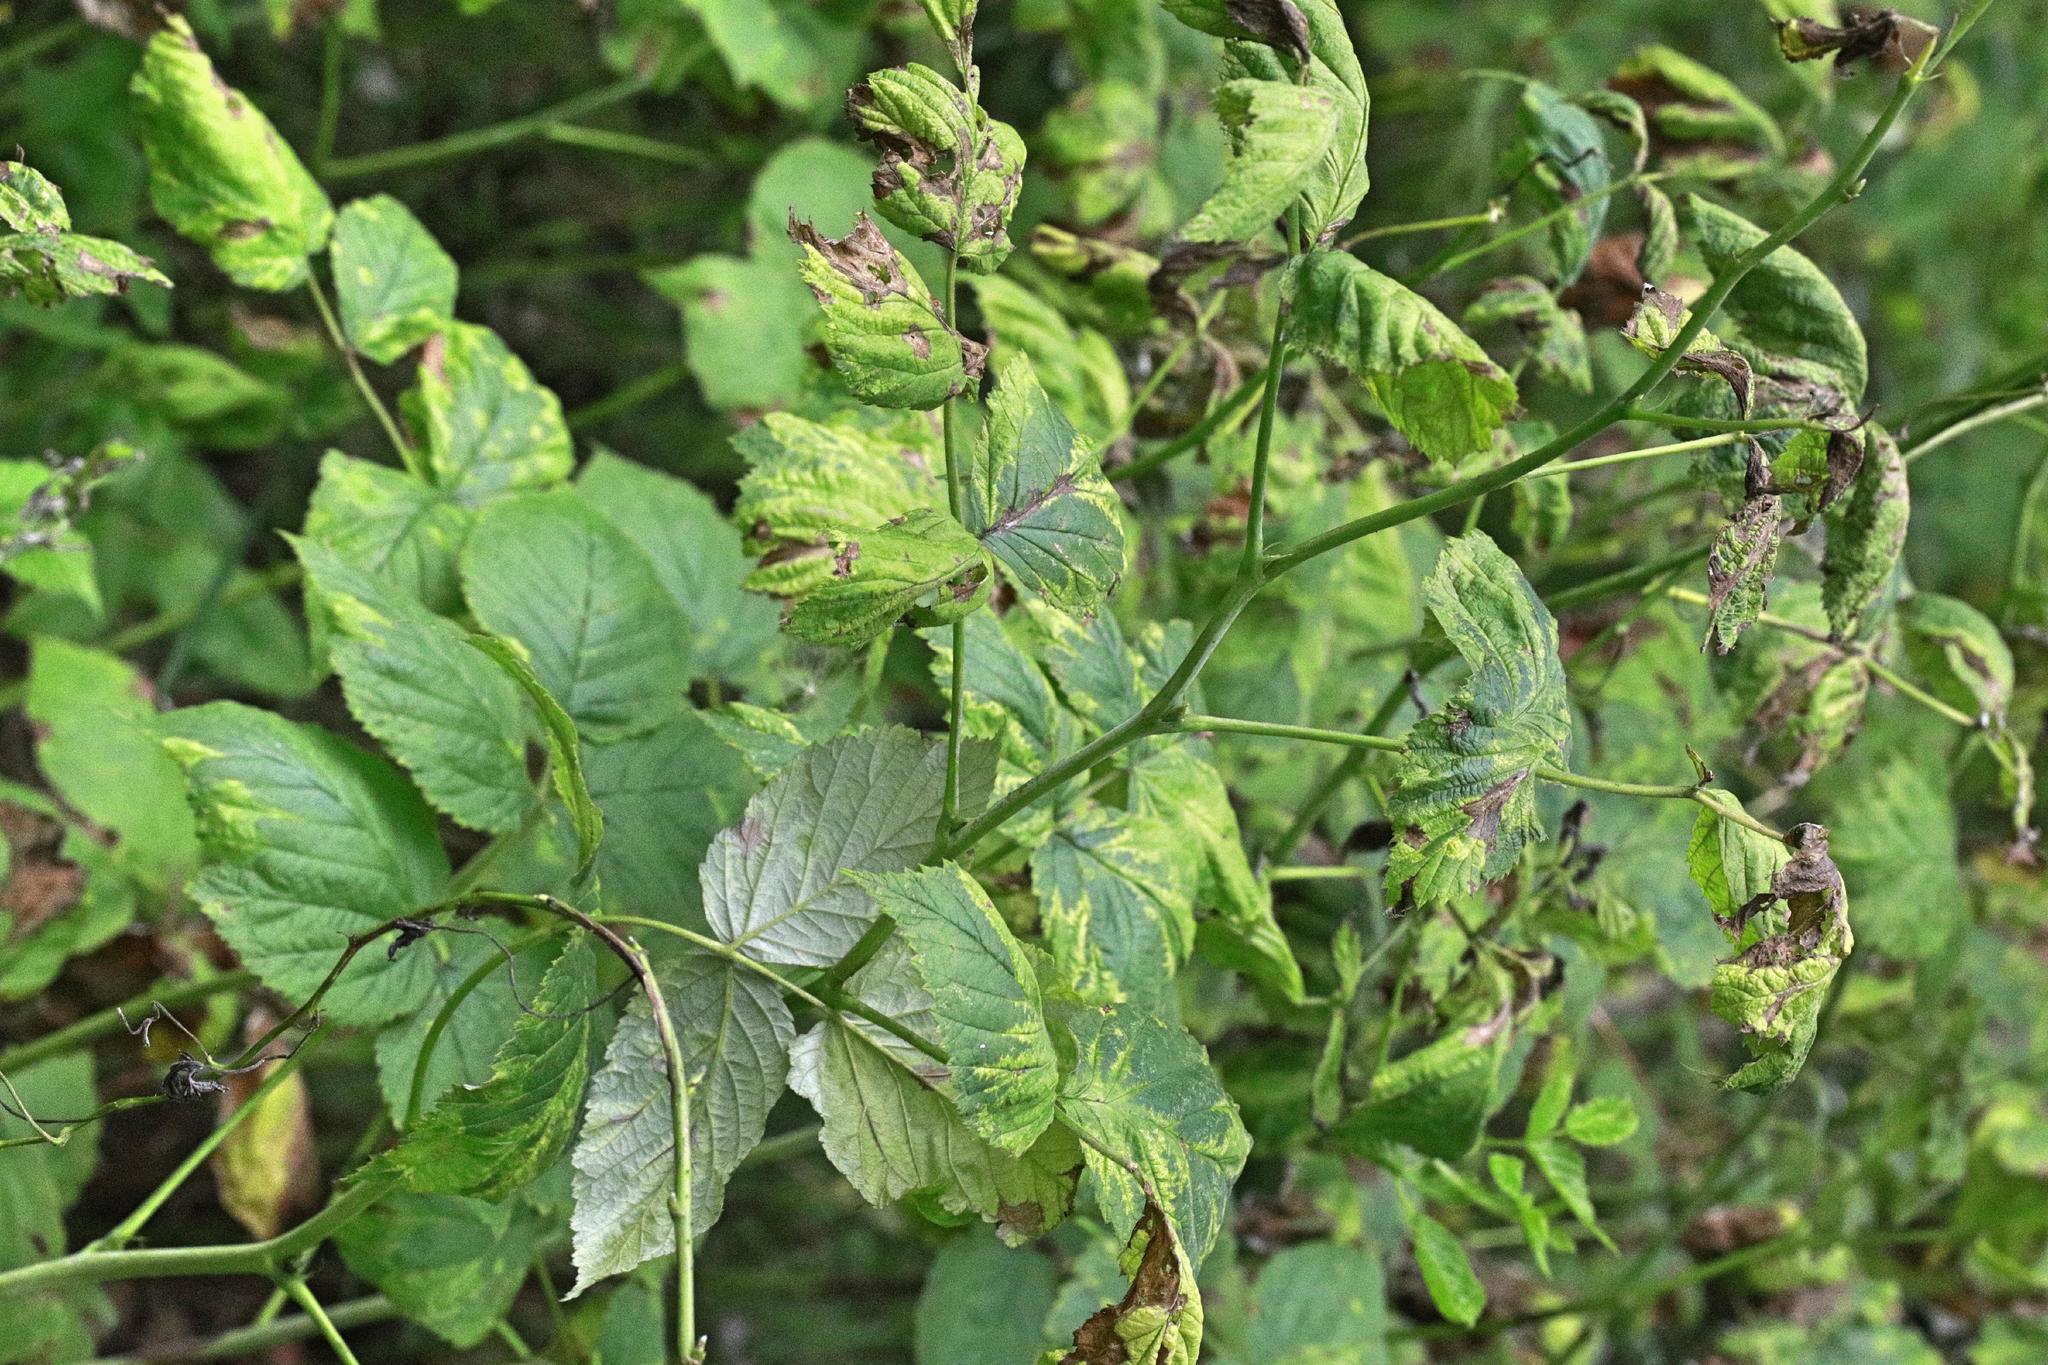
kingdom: Plantae
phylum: Tracheophyta
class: Magnoliopsida
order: Rosales
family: Rosaceae
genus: Rubus
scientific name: Rubus idaeus
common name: Raspberry
